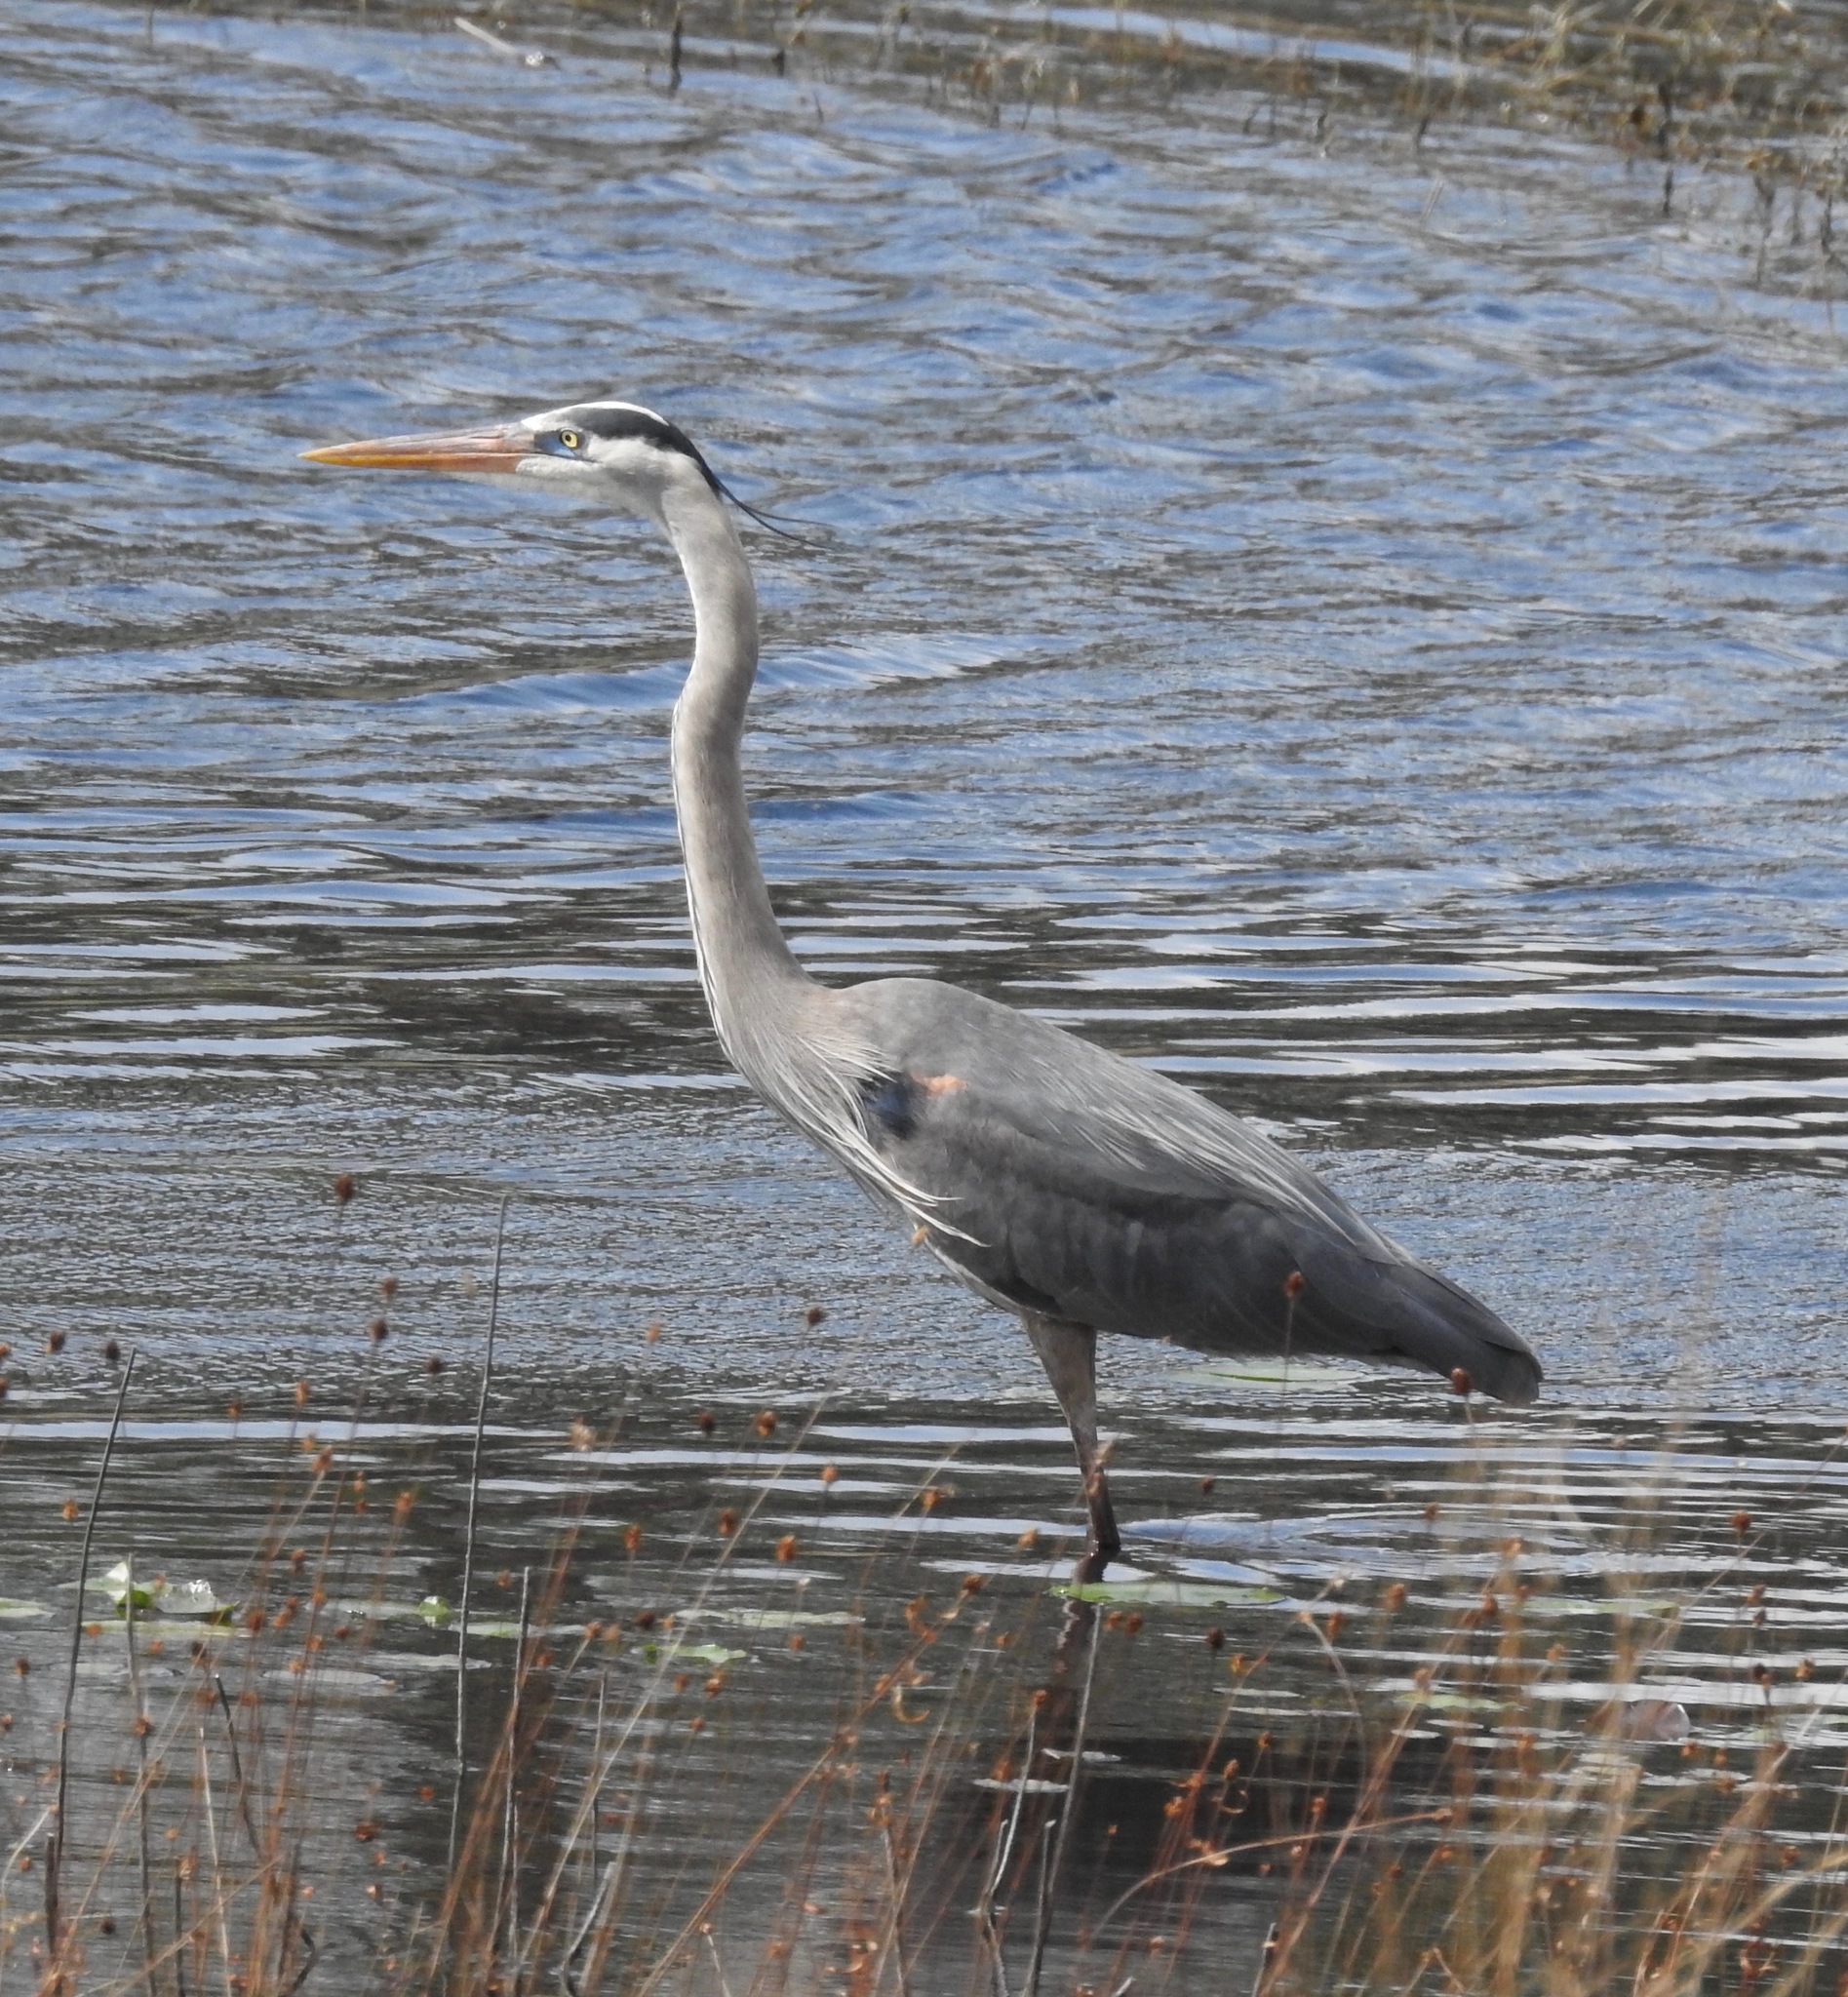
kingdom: Animalia
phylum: Chordata
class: Aves
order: Pelecaniformes
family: Ardeidae
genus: Ardea
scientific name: Ardea herodias
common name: Great blue heron
